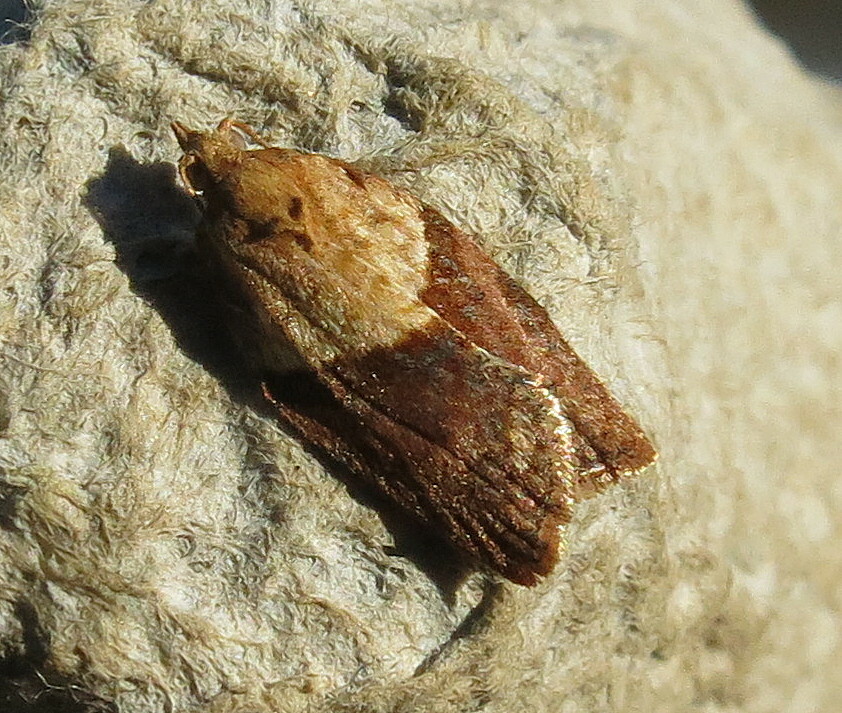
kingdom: Animalia
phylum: Arthropoda
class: Insecta
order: Lepidoptera
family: Tortricidae
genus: Epiphyas
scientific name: Epiphyas postvittana
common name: Light brown apple moth
